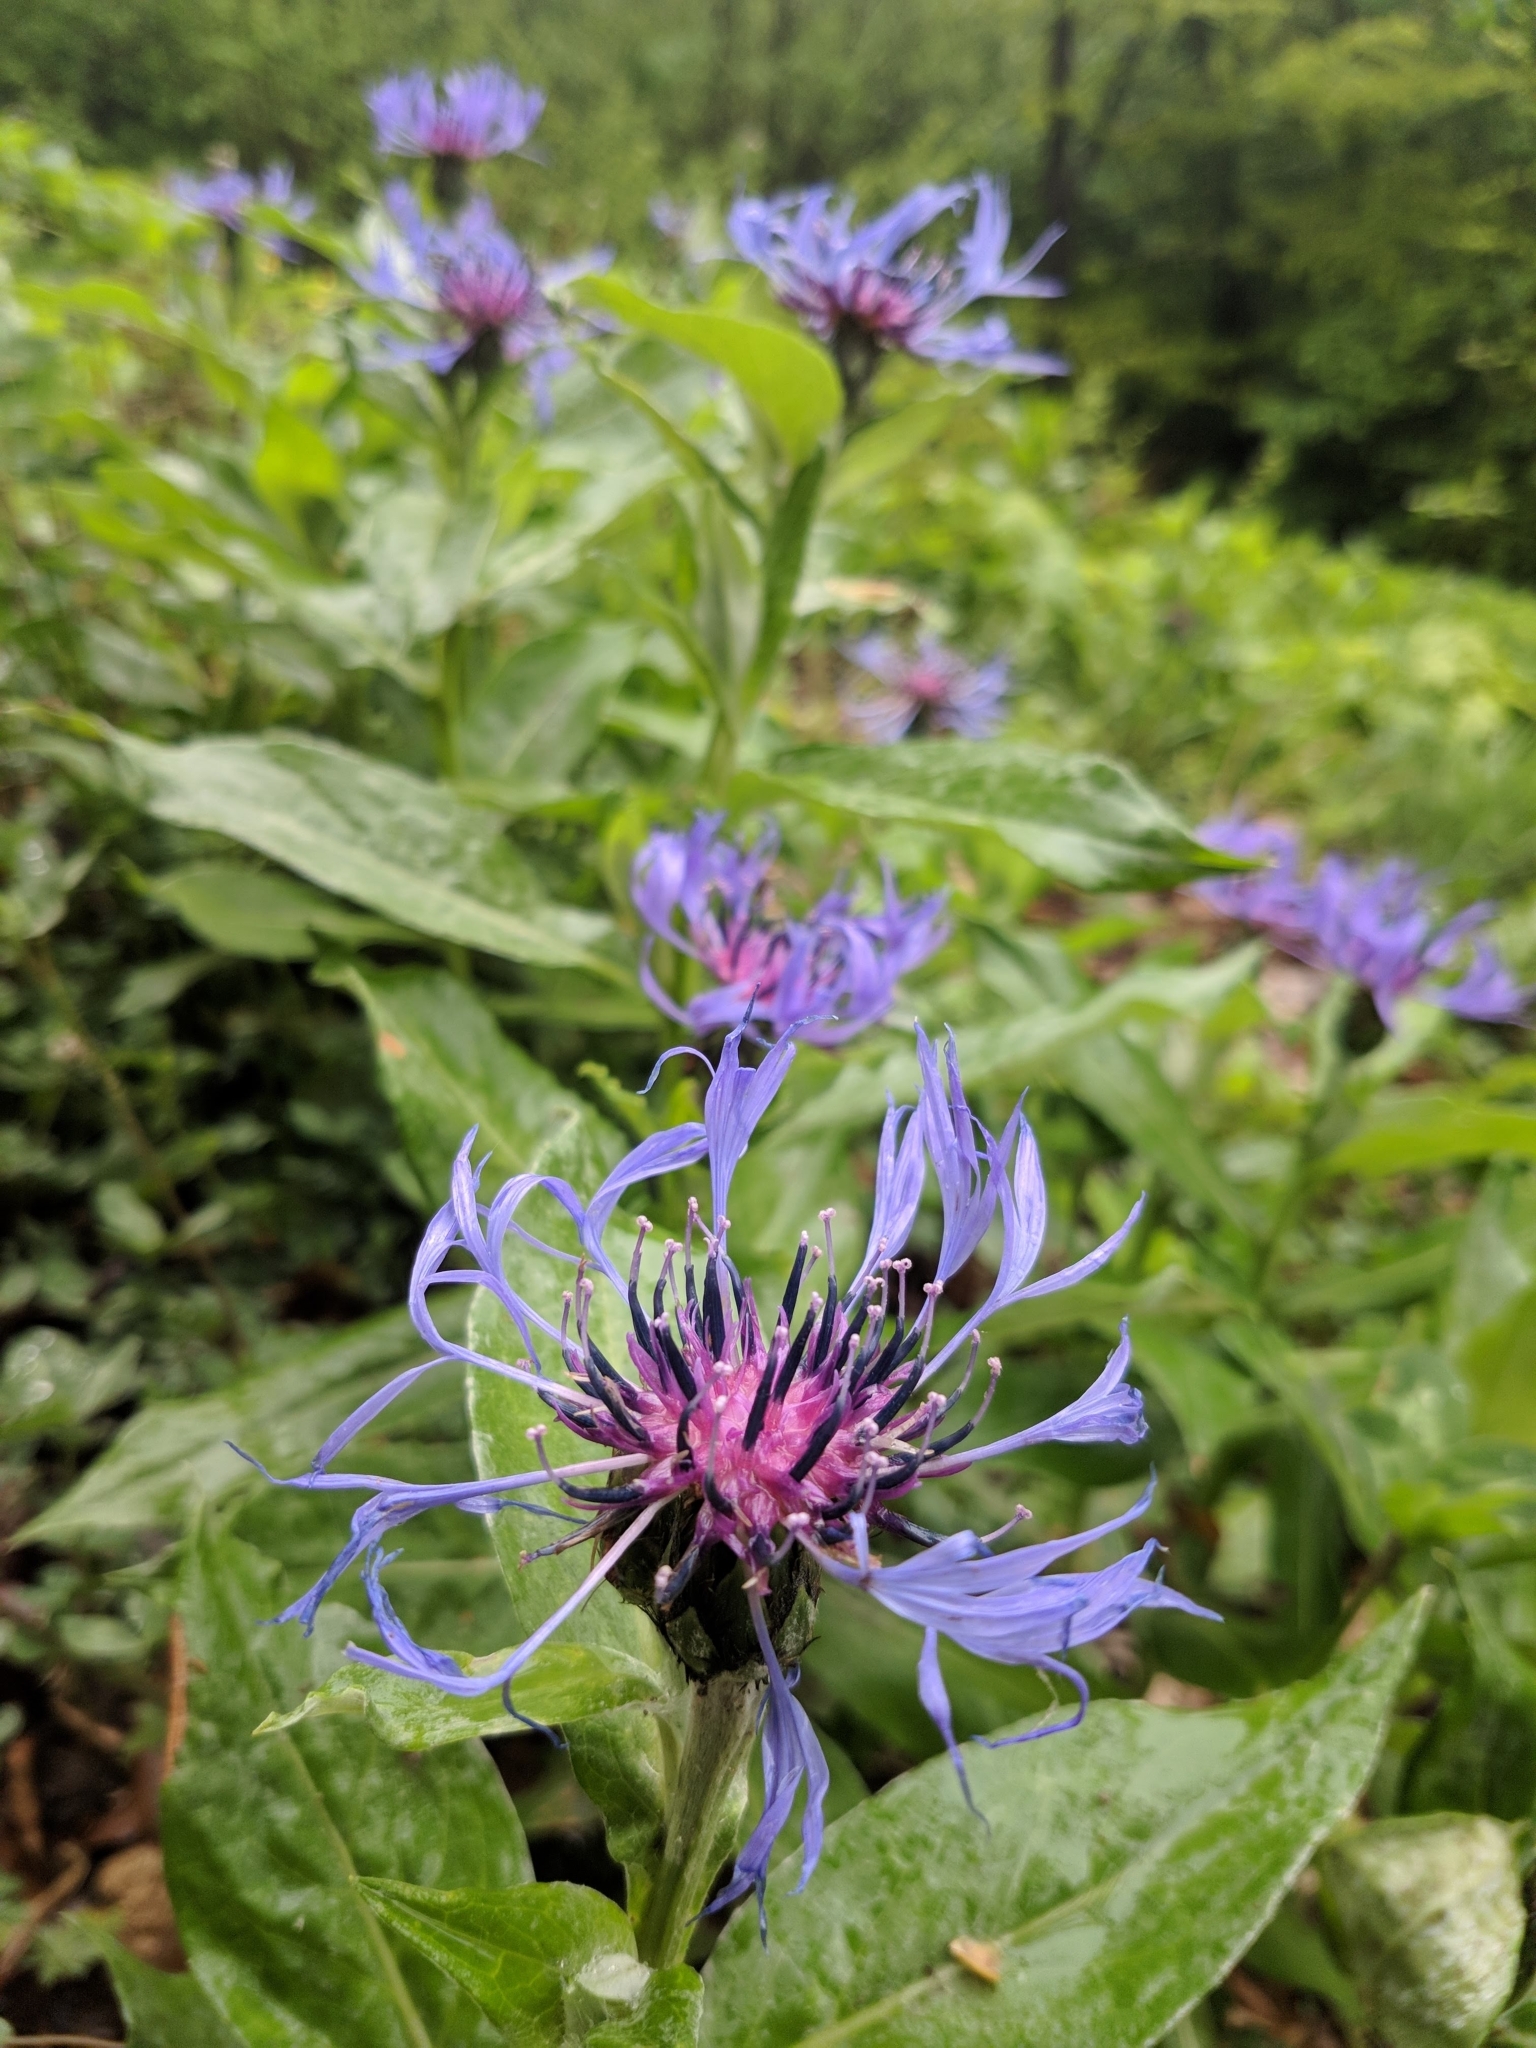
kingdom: Plantae
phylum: Tracheophyta
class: Magnoliopsida
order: Asterales
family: Asteraceae
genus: Centaurea
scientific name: Centaurea montana
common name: Perennial cornflower
